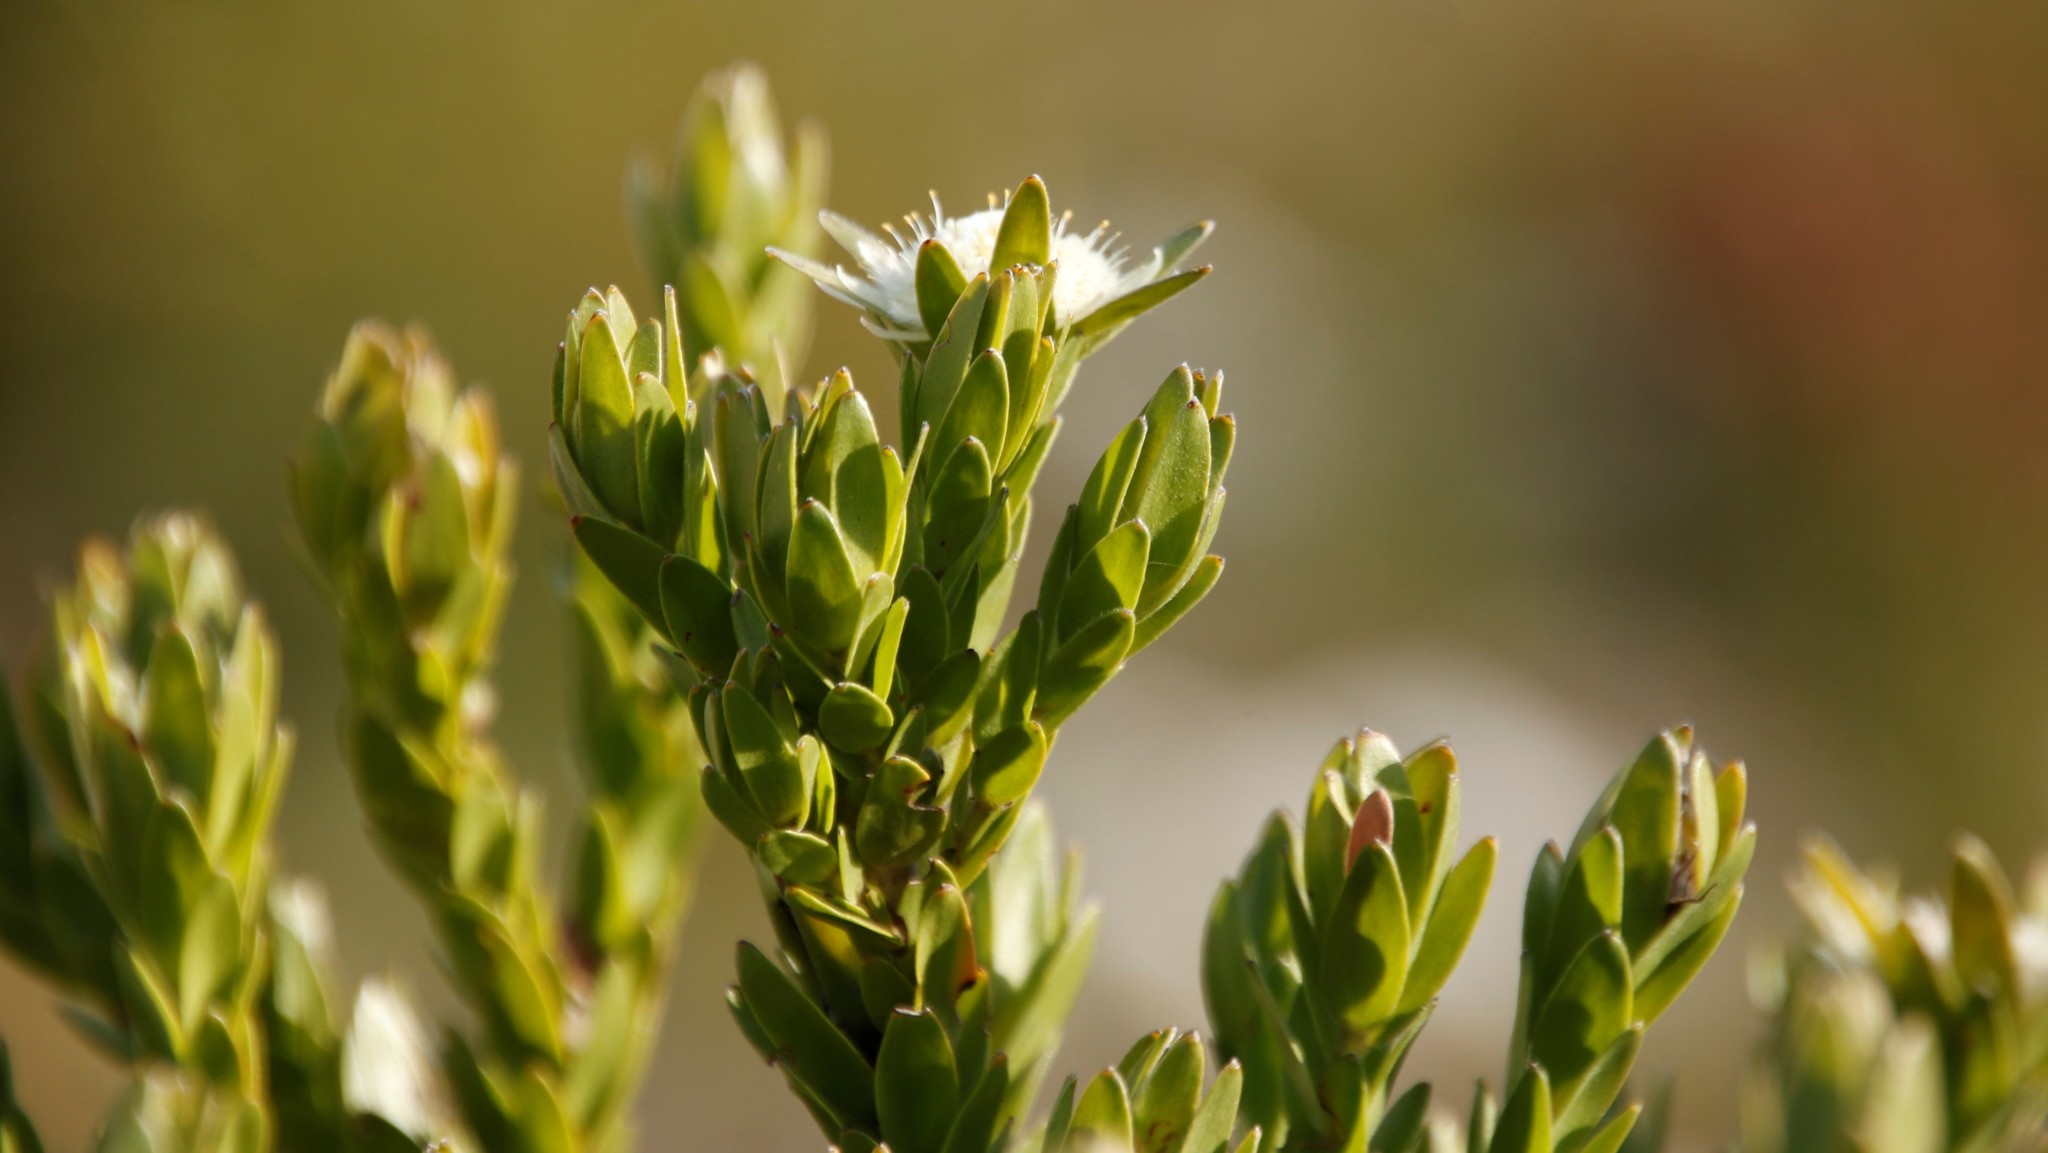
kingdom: Plantae
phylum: Tracheophyta
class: Magnoliopsida
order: Proteales
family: Proteaceae
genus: Diastella
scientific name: Diastella thymelaeoides
